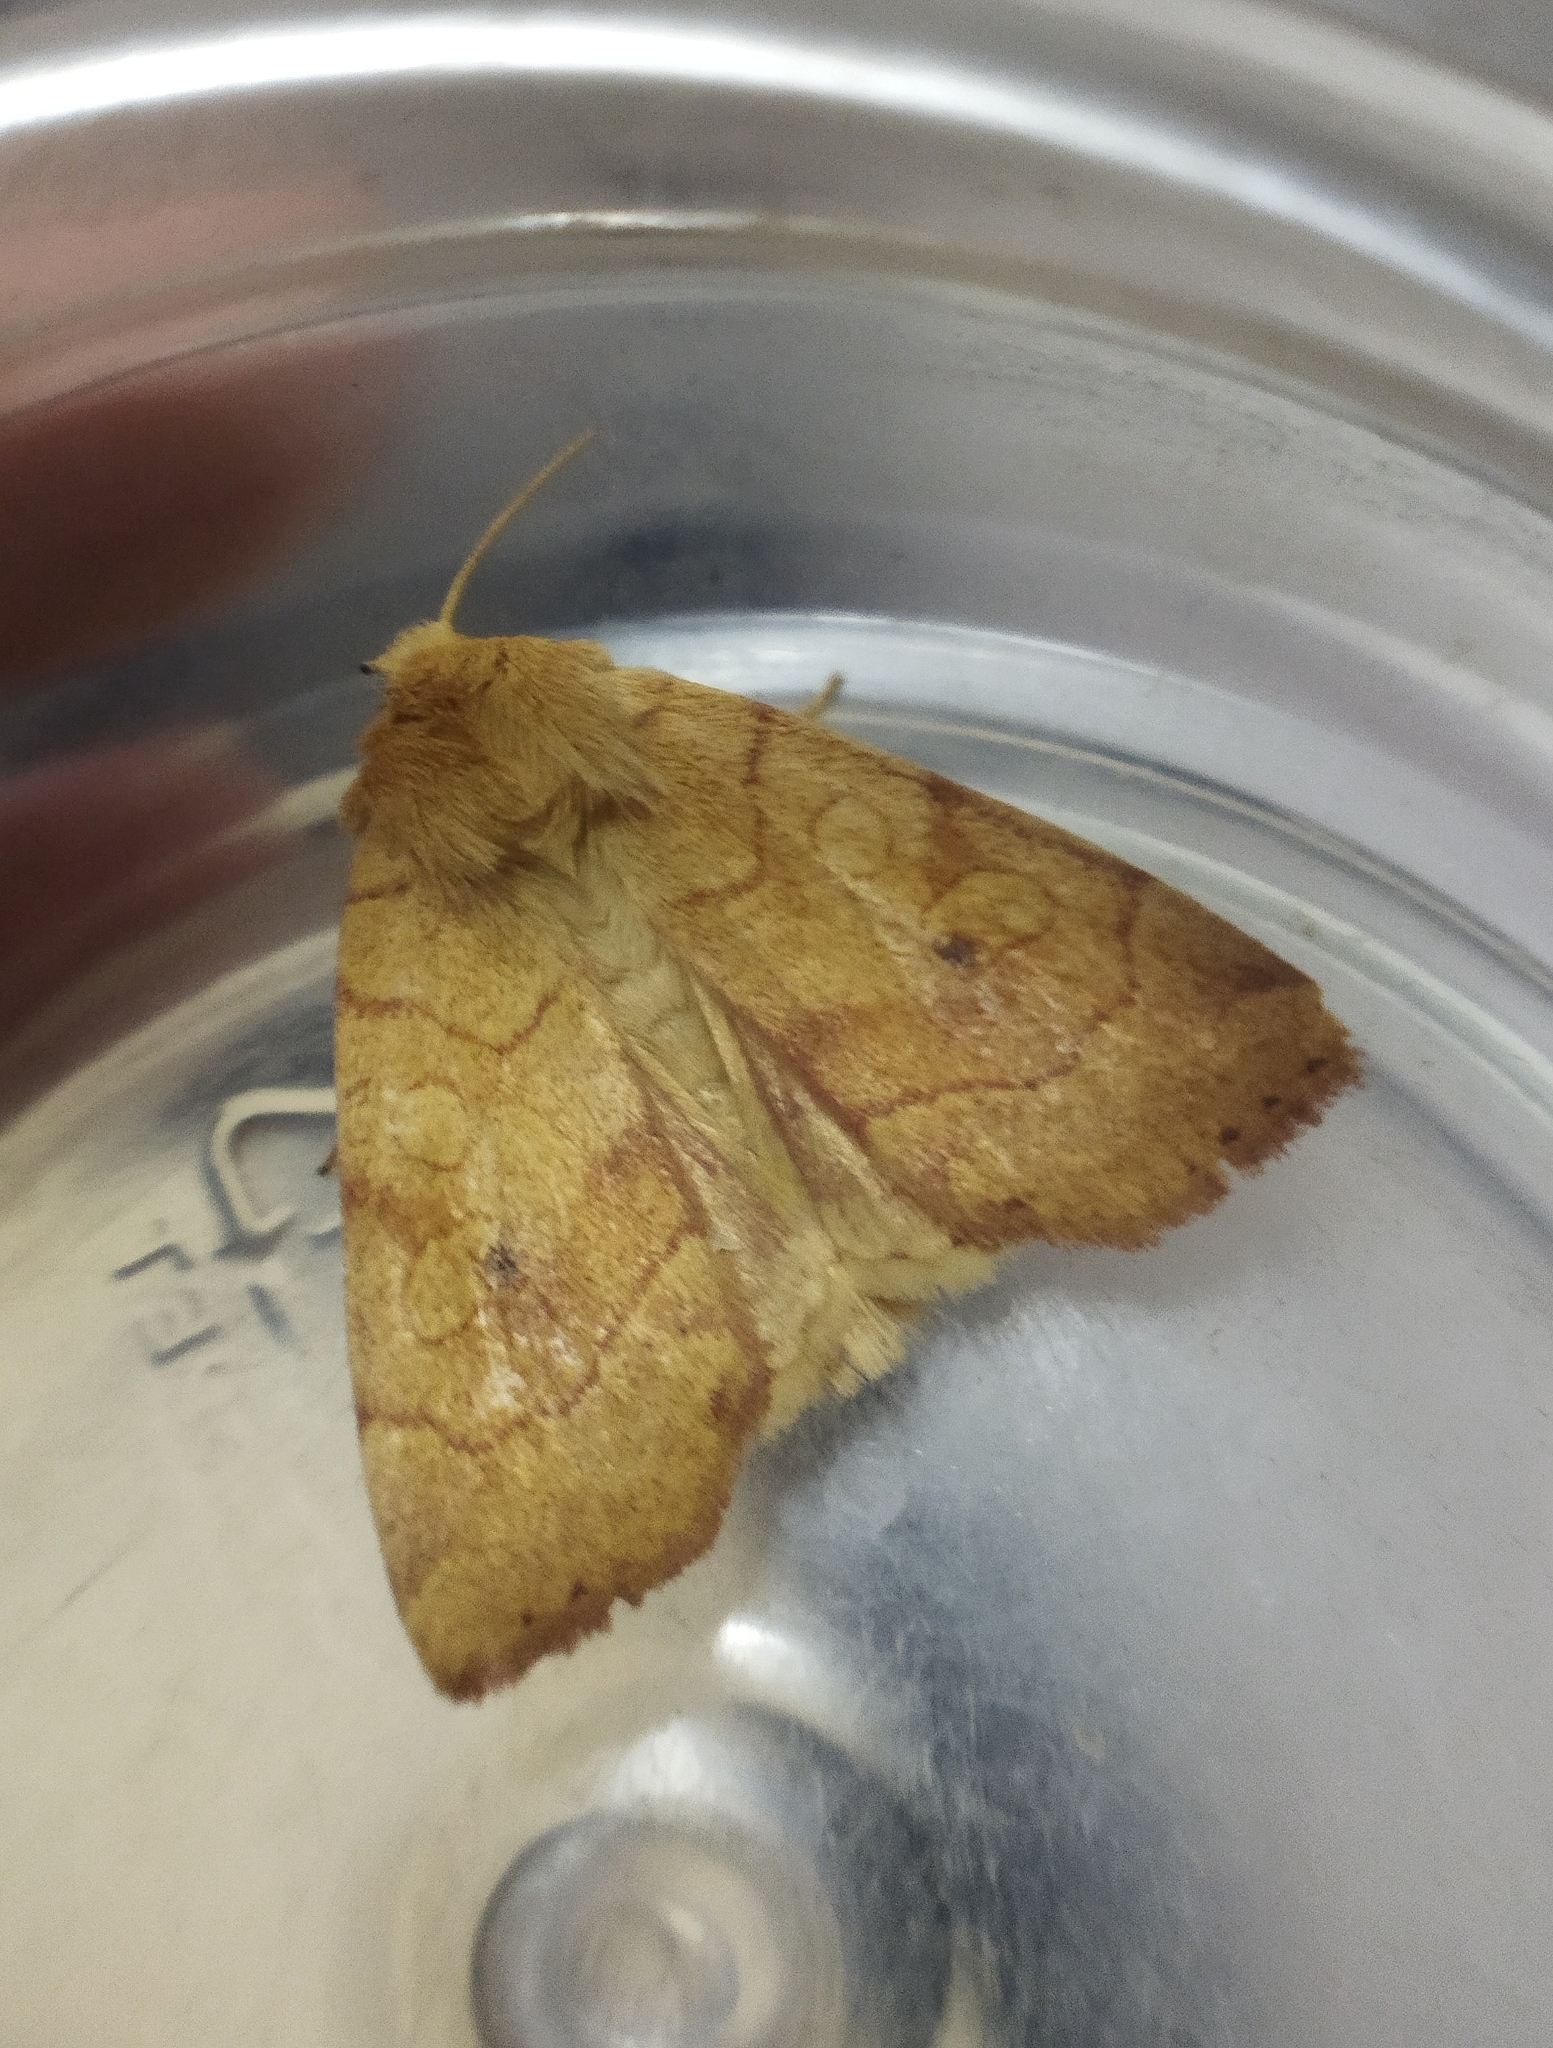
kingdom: Animalia
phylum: Arthropoda
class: Insecta
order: Lepidoptera
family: Noctuidae
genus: Enargia
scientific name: Enargia paleacea
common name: Angle-striped sallow
